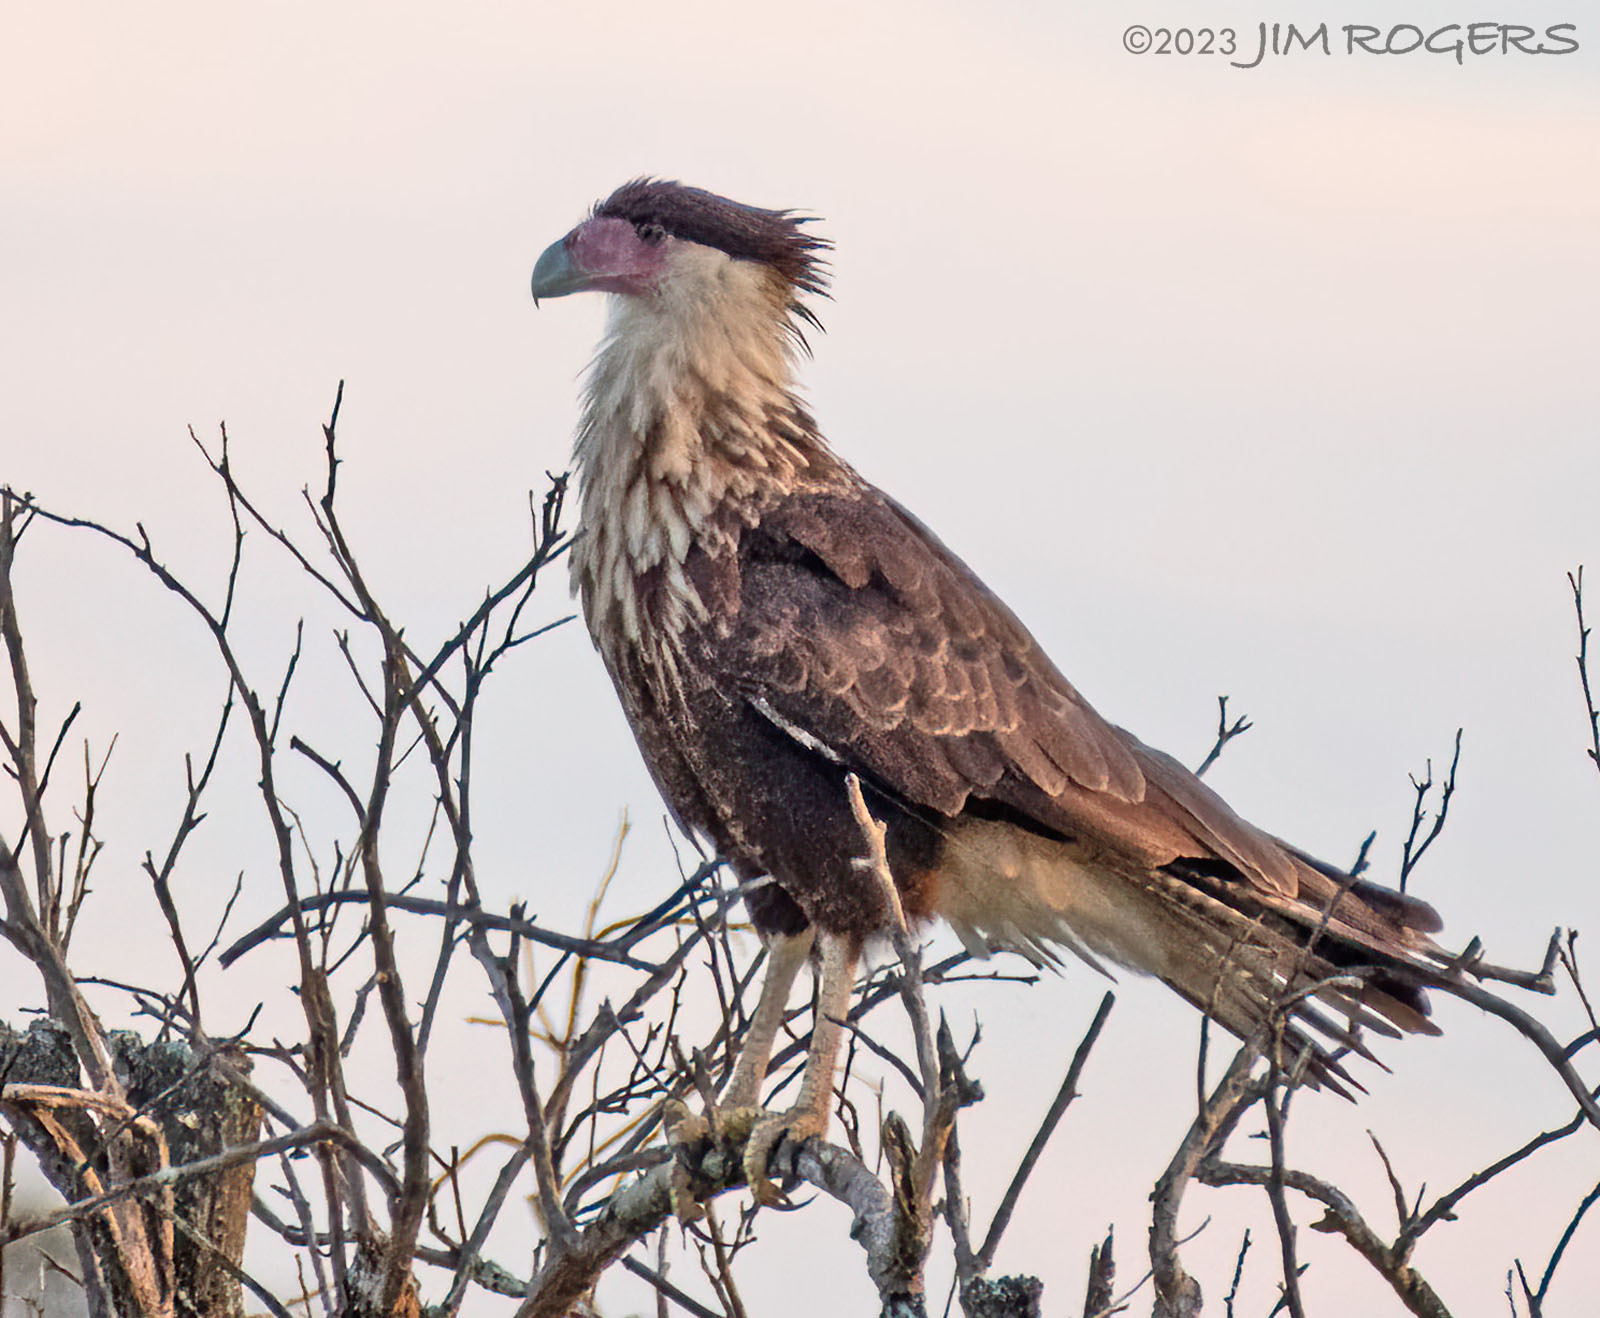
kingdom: Animalia
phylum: Chordata
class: Aves
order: Falconiformes
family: Falconidae
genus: Caracara
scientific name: Caracara plancus
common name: Southern caracara
